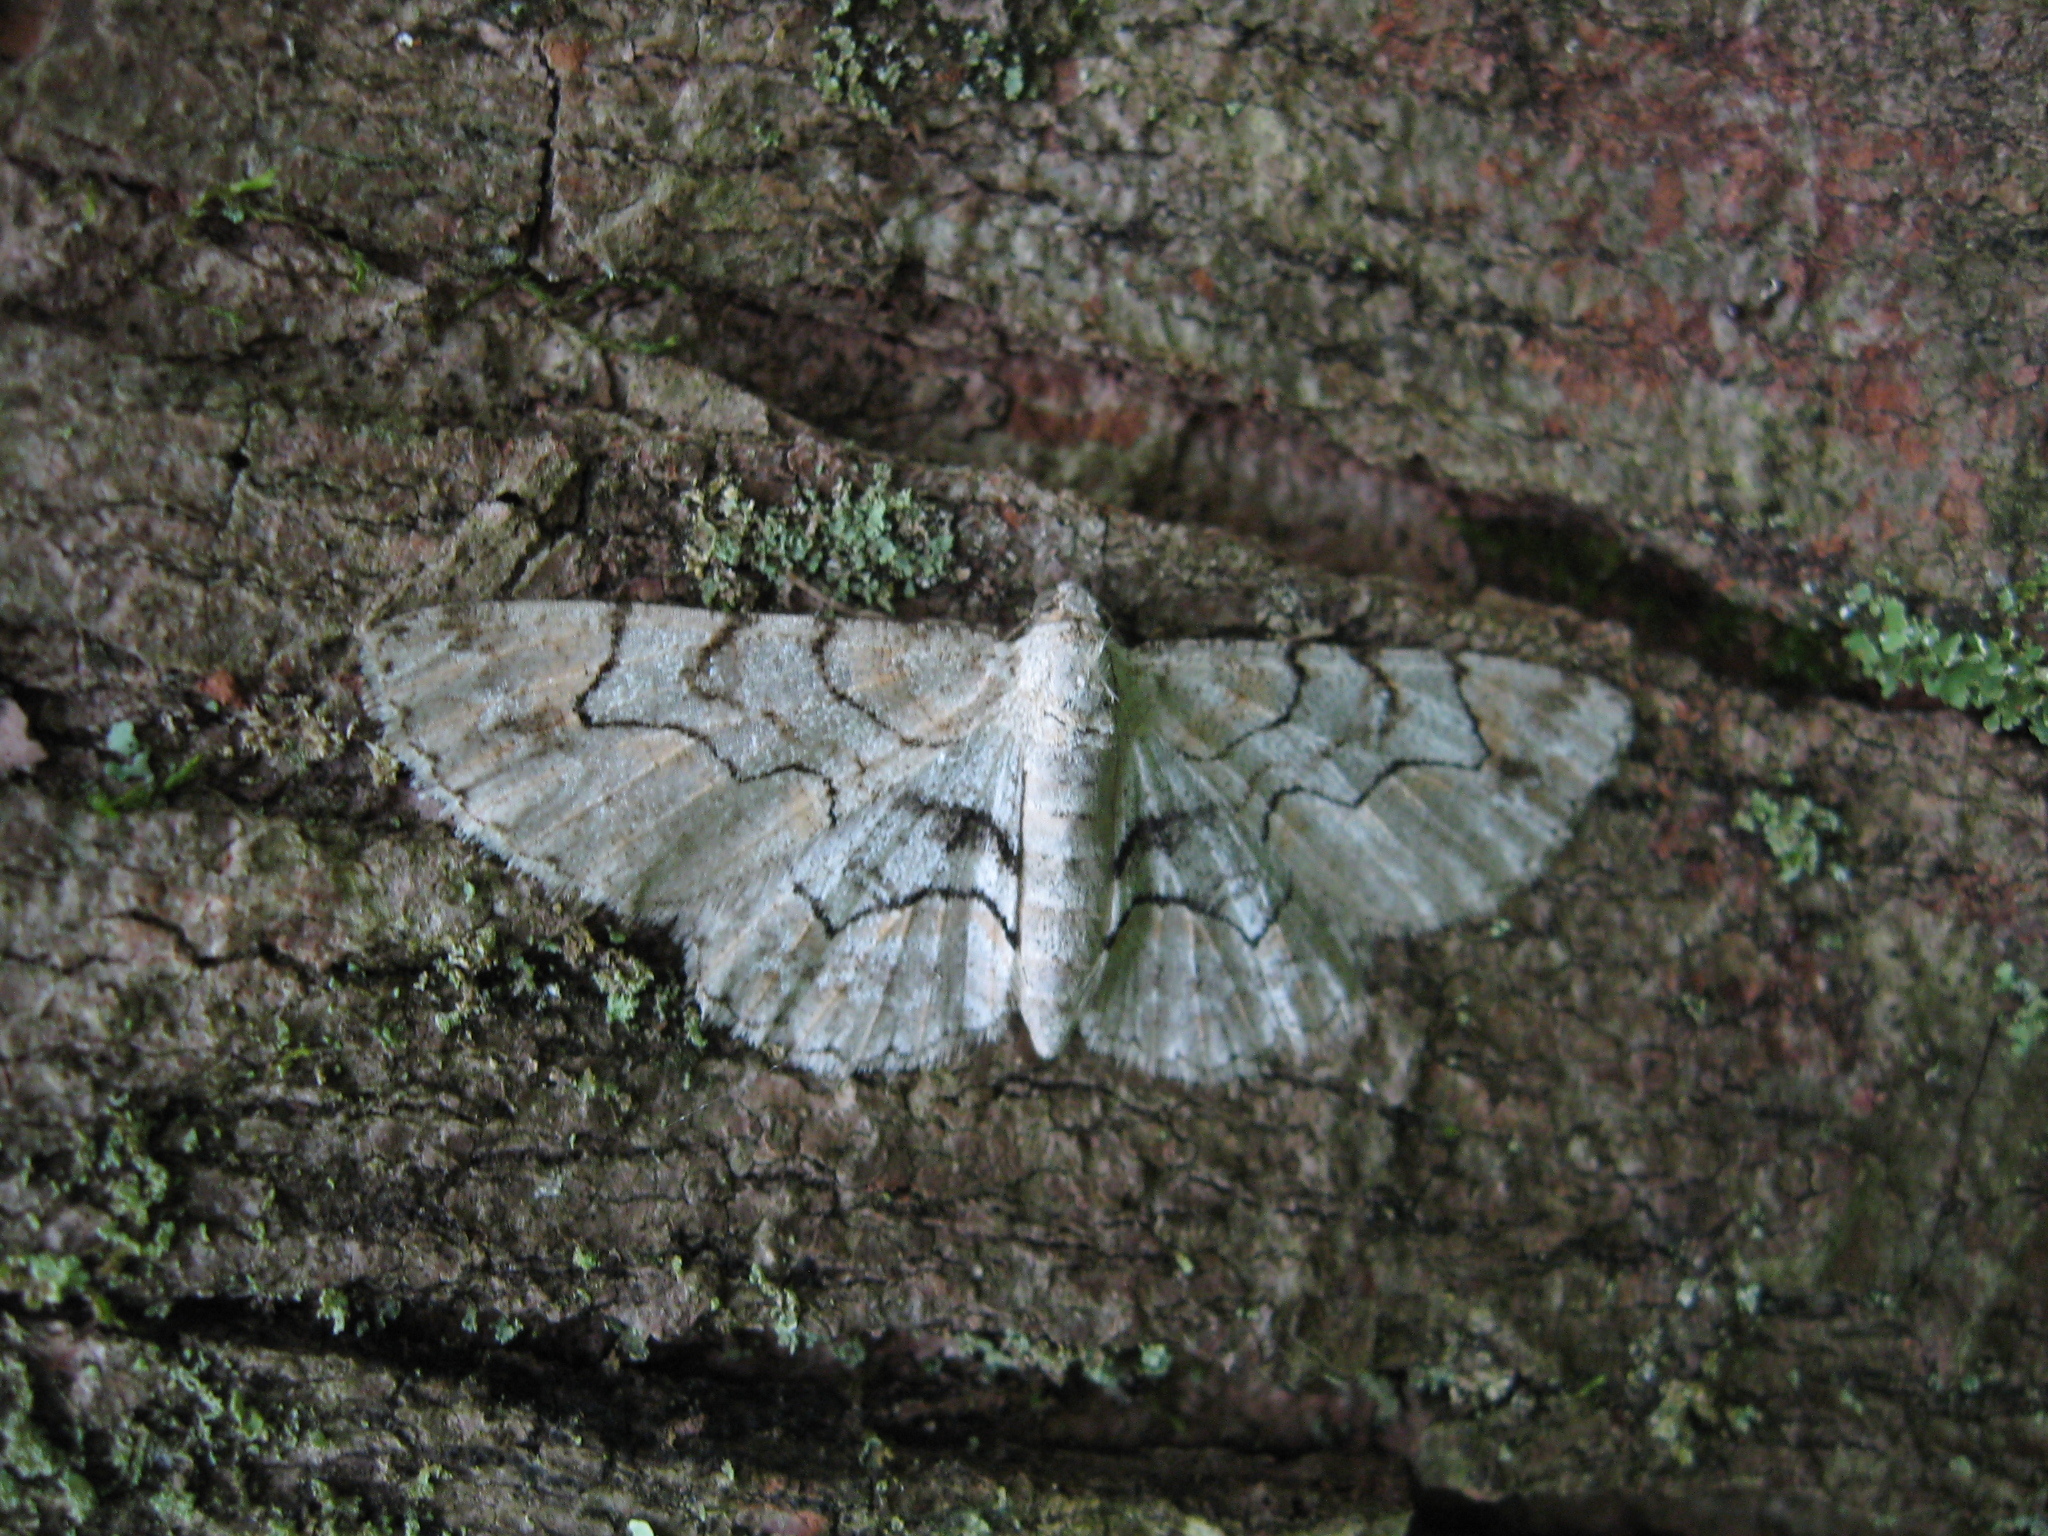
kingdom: Animalia
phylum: Arthropoda
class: Insecta
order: Lepidoptera
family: Geometridae
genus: Iridopsis
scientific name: Iridopsis larvaria
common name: Bent-line gray
